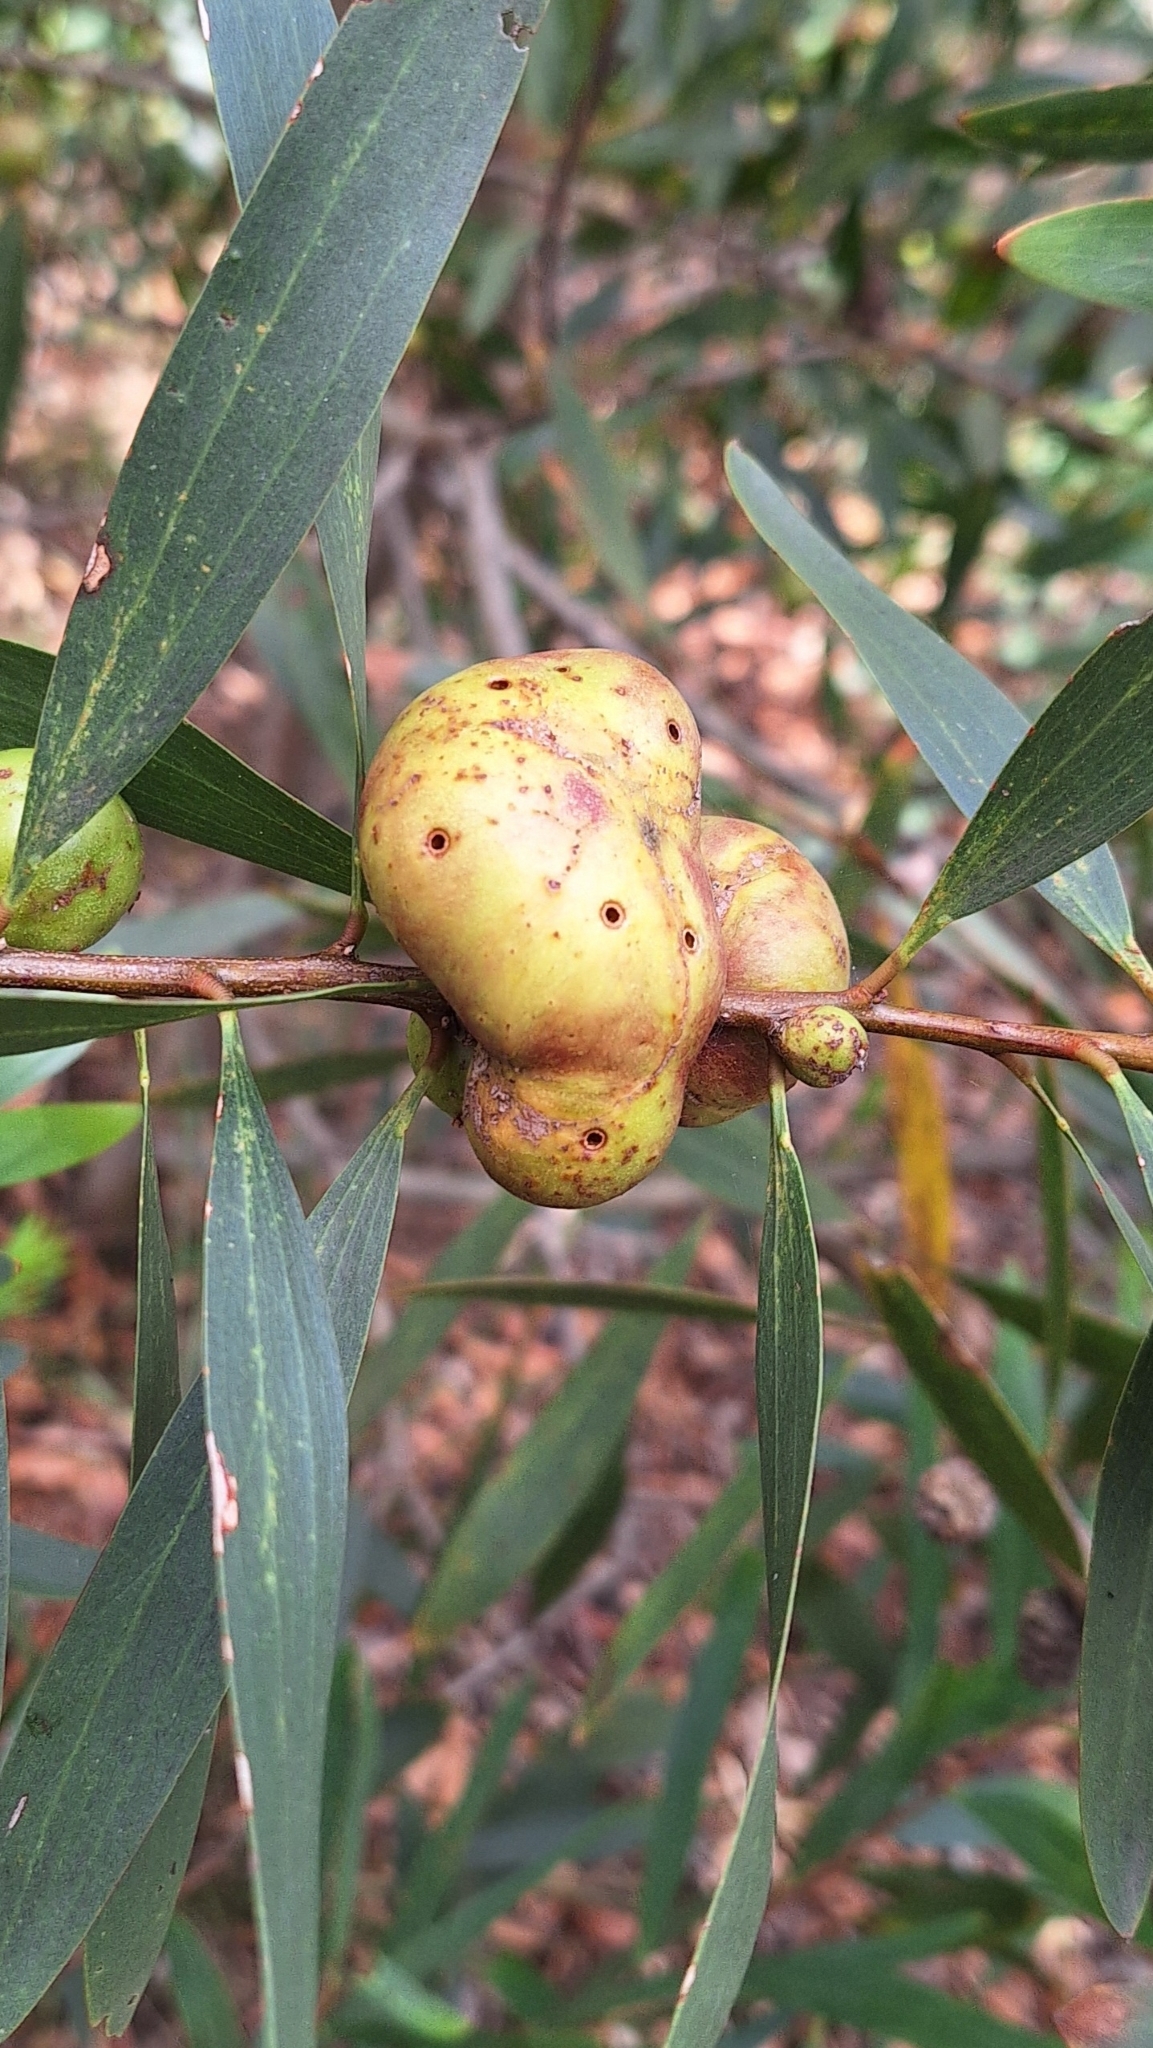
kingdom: Animalia
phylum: Arthropoda
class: Insecta
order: Hymenoptera
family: Pteromalidae
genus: Trichilogaster
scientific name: Trichilogaster acaciaelongifoliae
